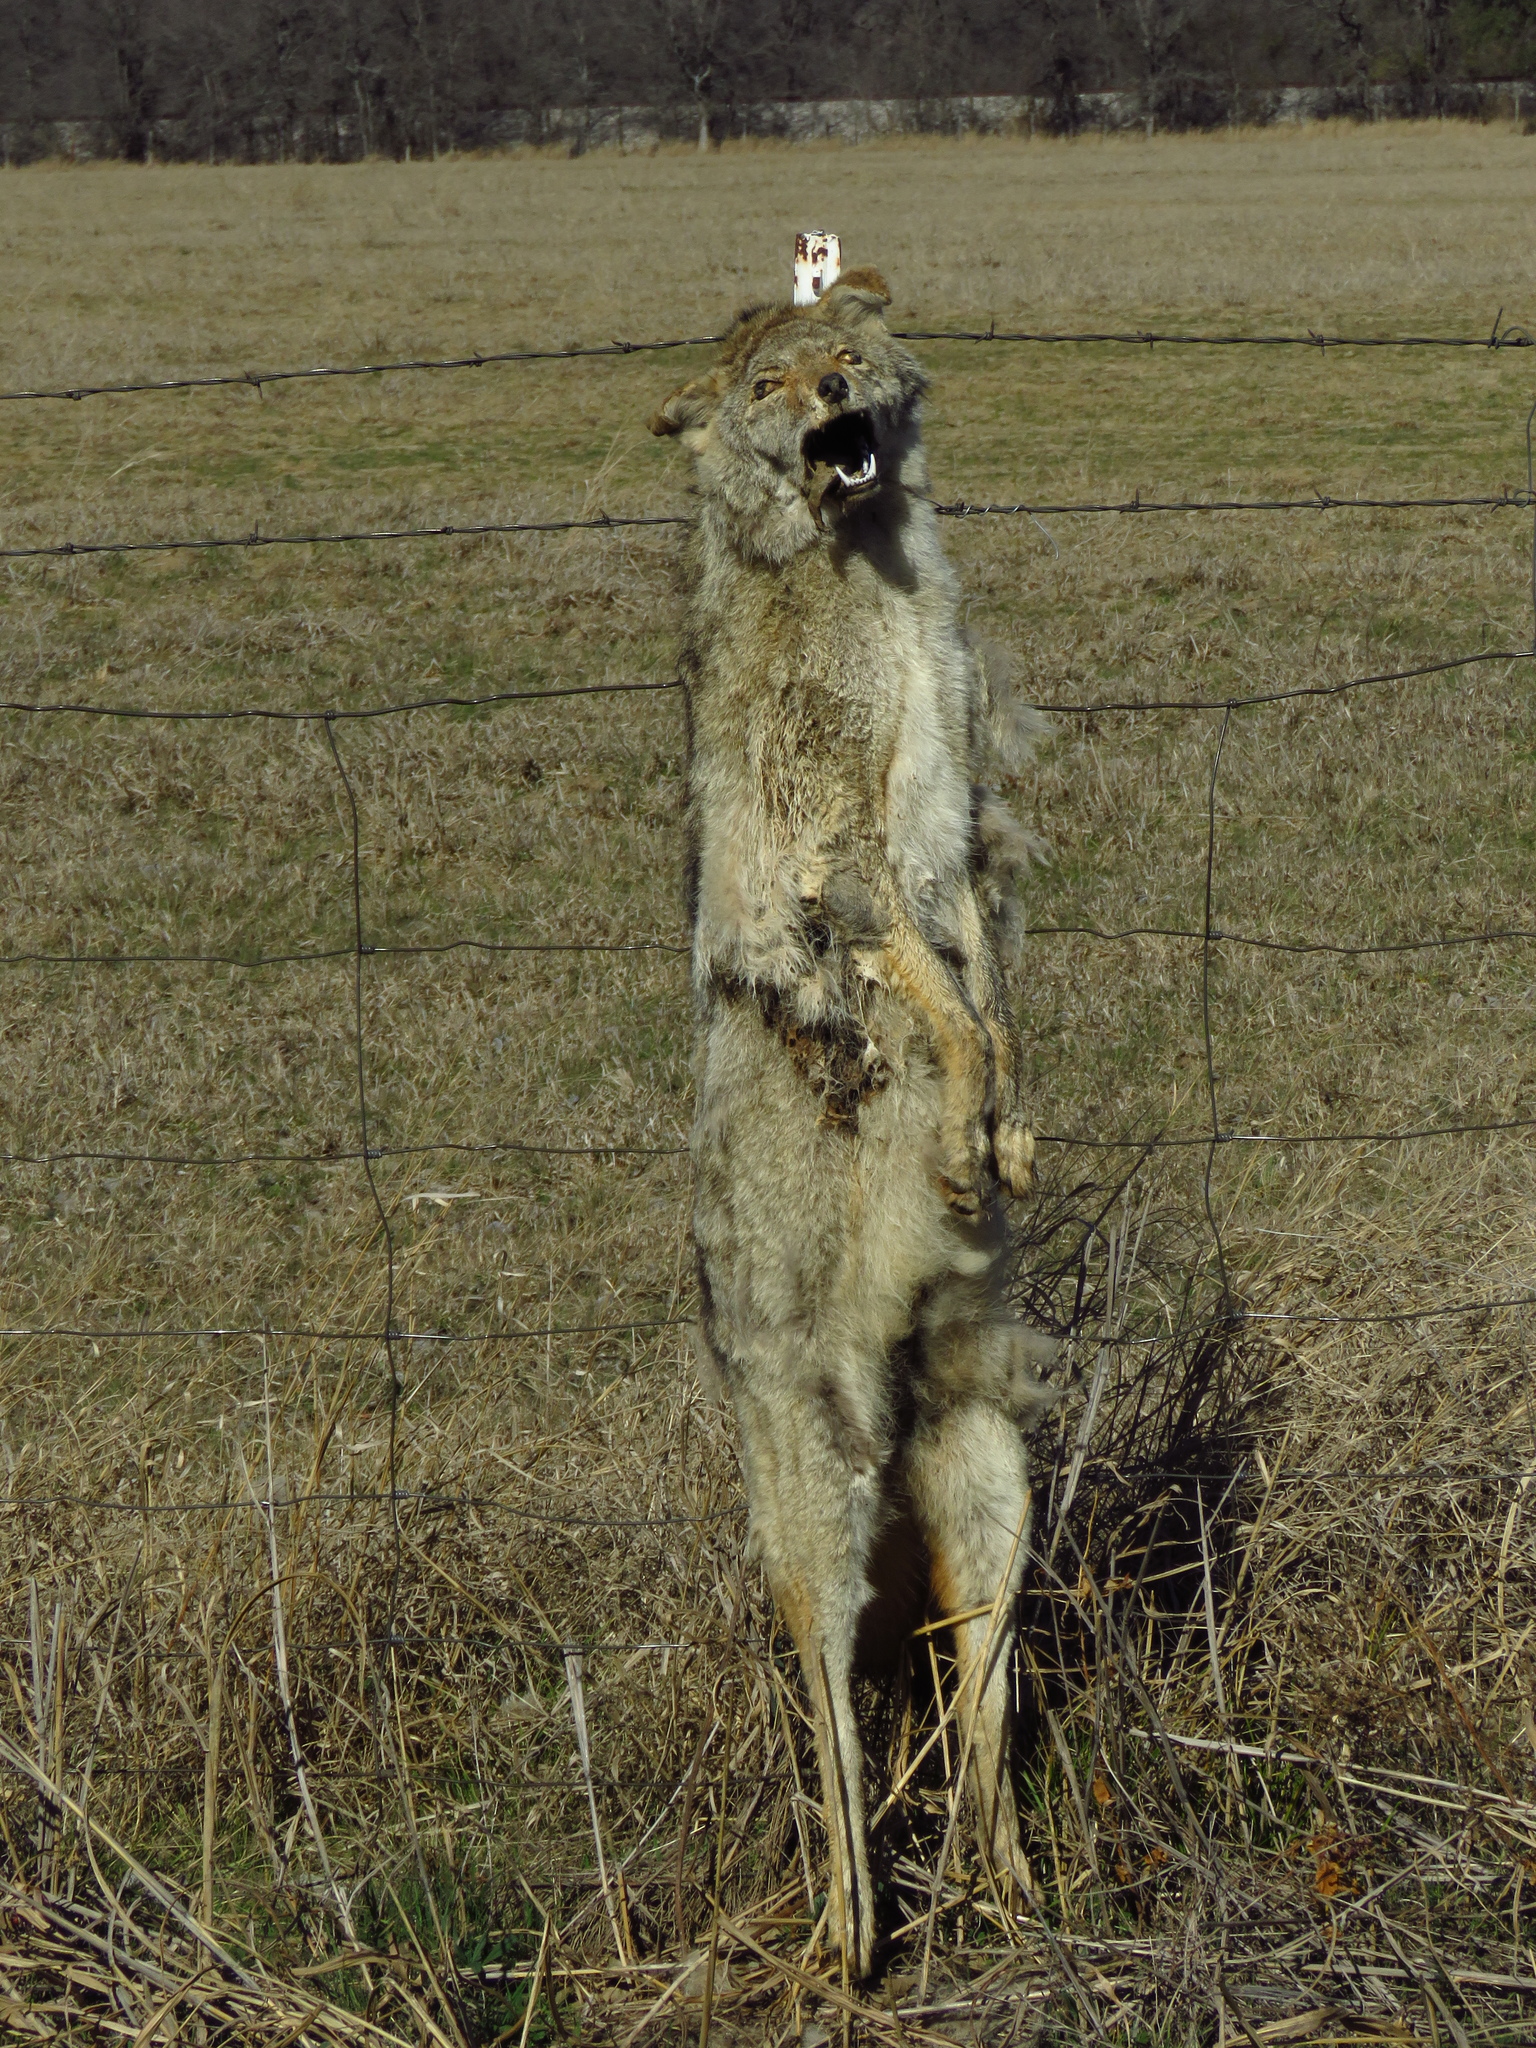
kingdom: Animalia
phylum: Chordata
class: Mammalia
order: Carnivora
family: Canidae
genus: Canis
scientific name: Canis latrans
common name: Coyote
